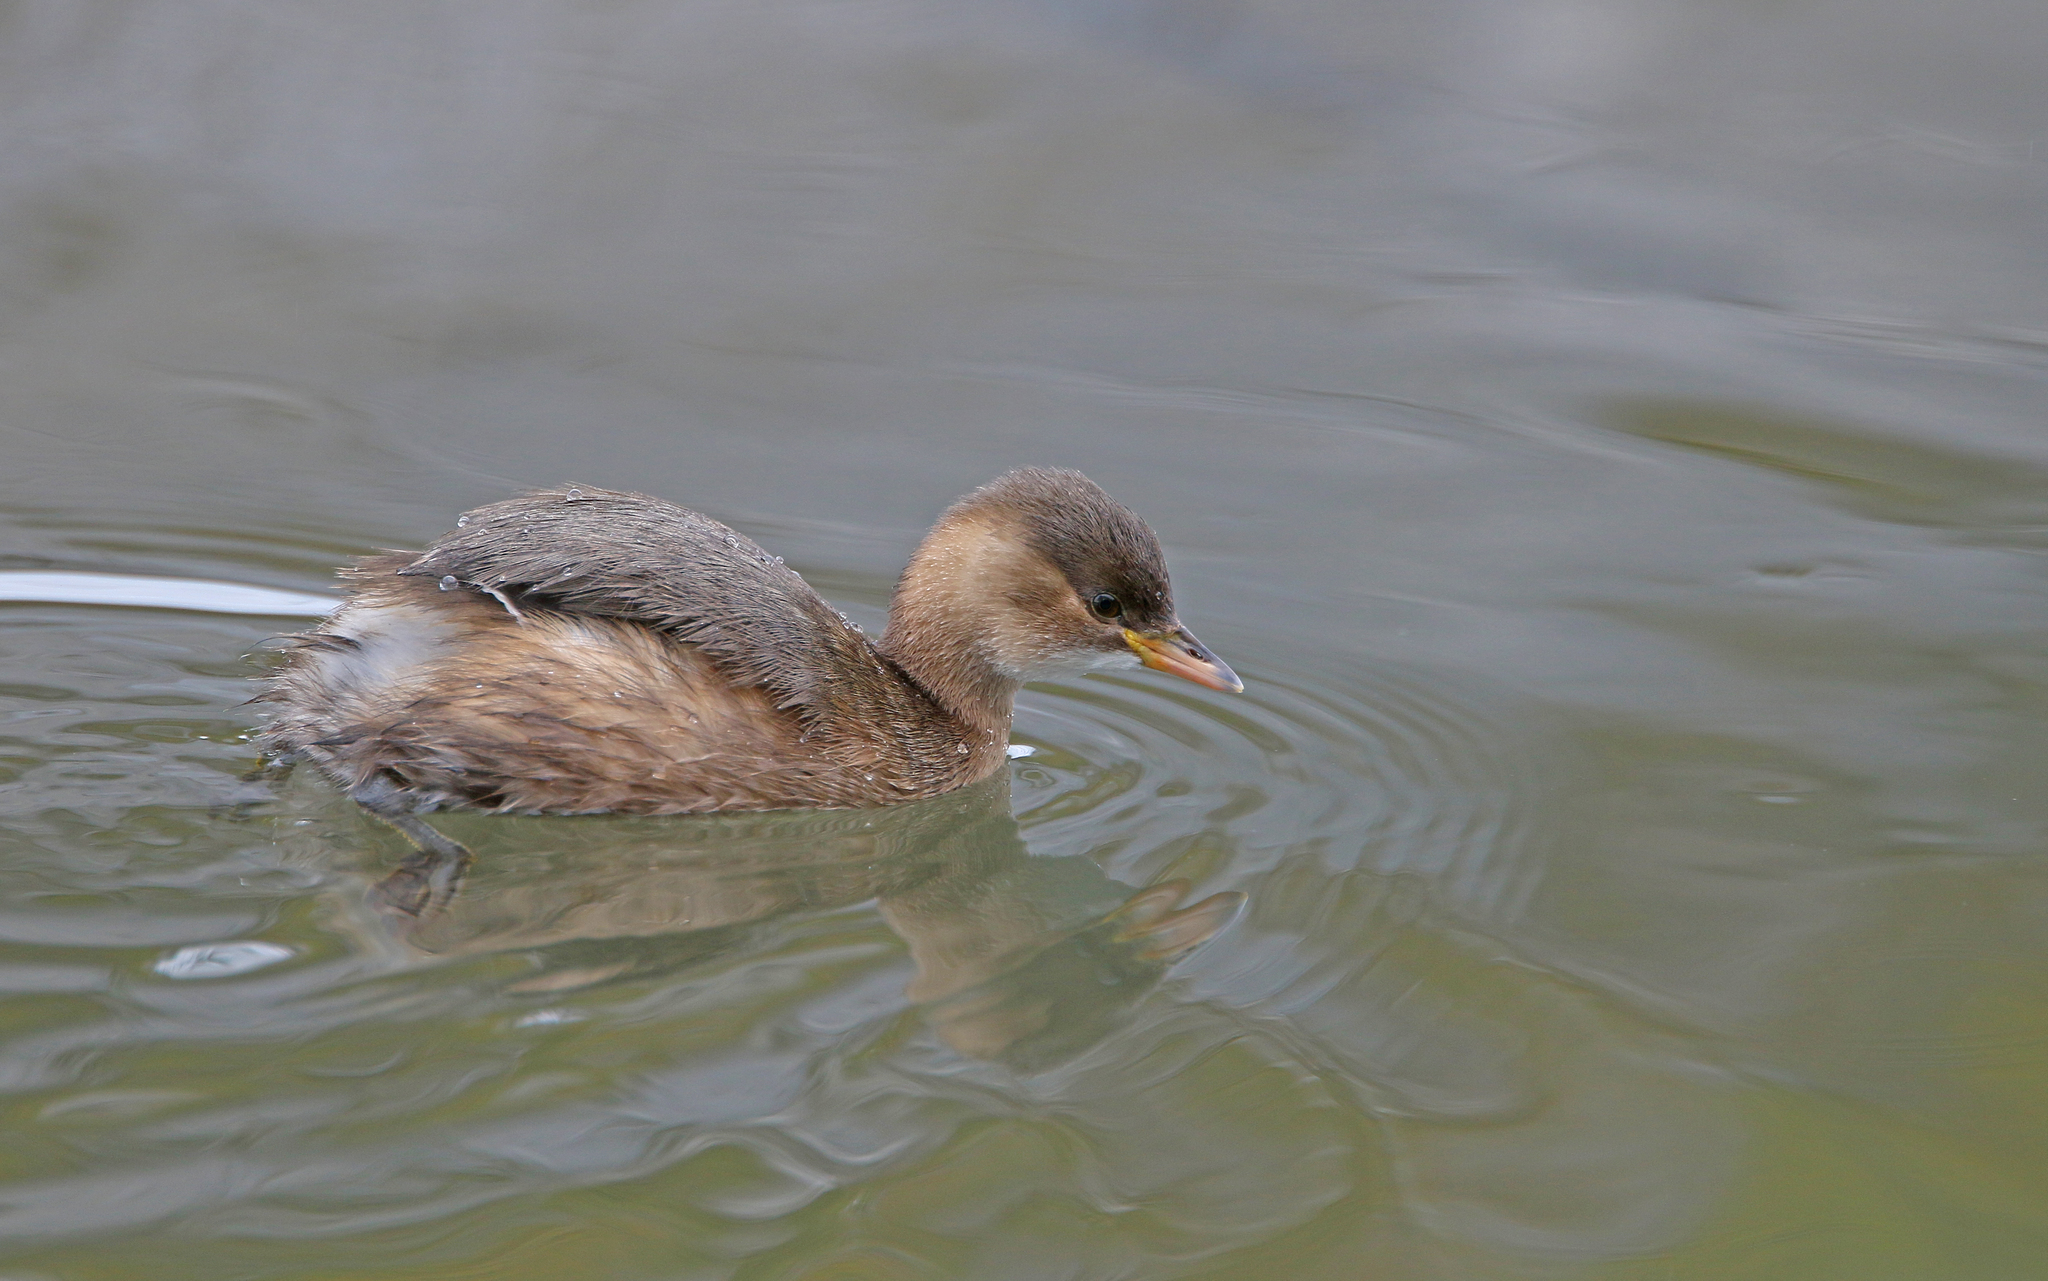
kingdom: Animalia
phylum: Chordata
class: Aves
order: Podicipediformes
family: Podicipedidae
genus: Tachybaptus
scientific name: Tachybaptus ruficollis
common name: Little grebe
